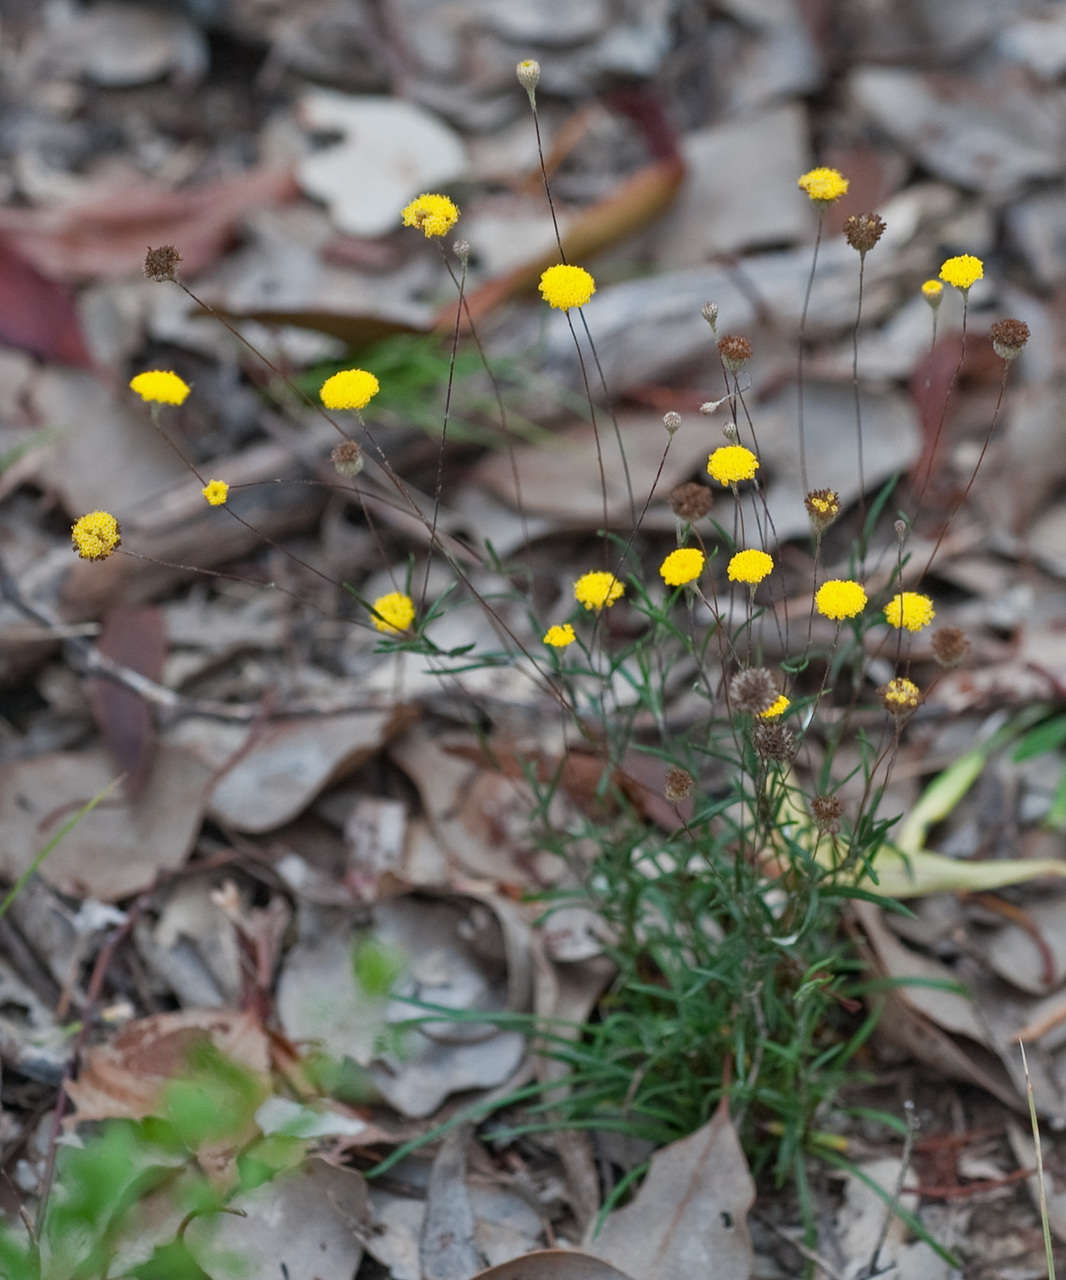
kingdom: Plantae
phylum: Tracheophyta
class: Magnoliopsida
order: Asterales
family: Asteraceae
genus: Leptorhynchos
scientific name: Leptorhynchos tenuifolius
